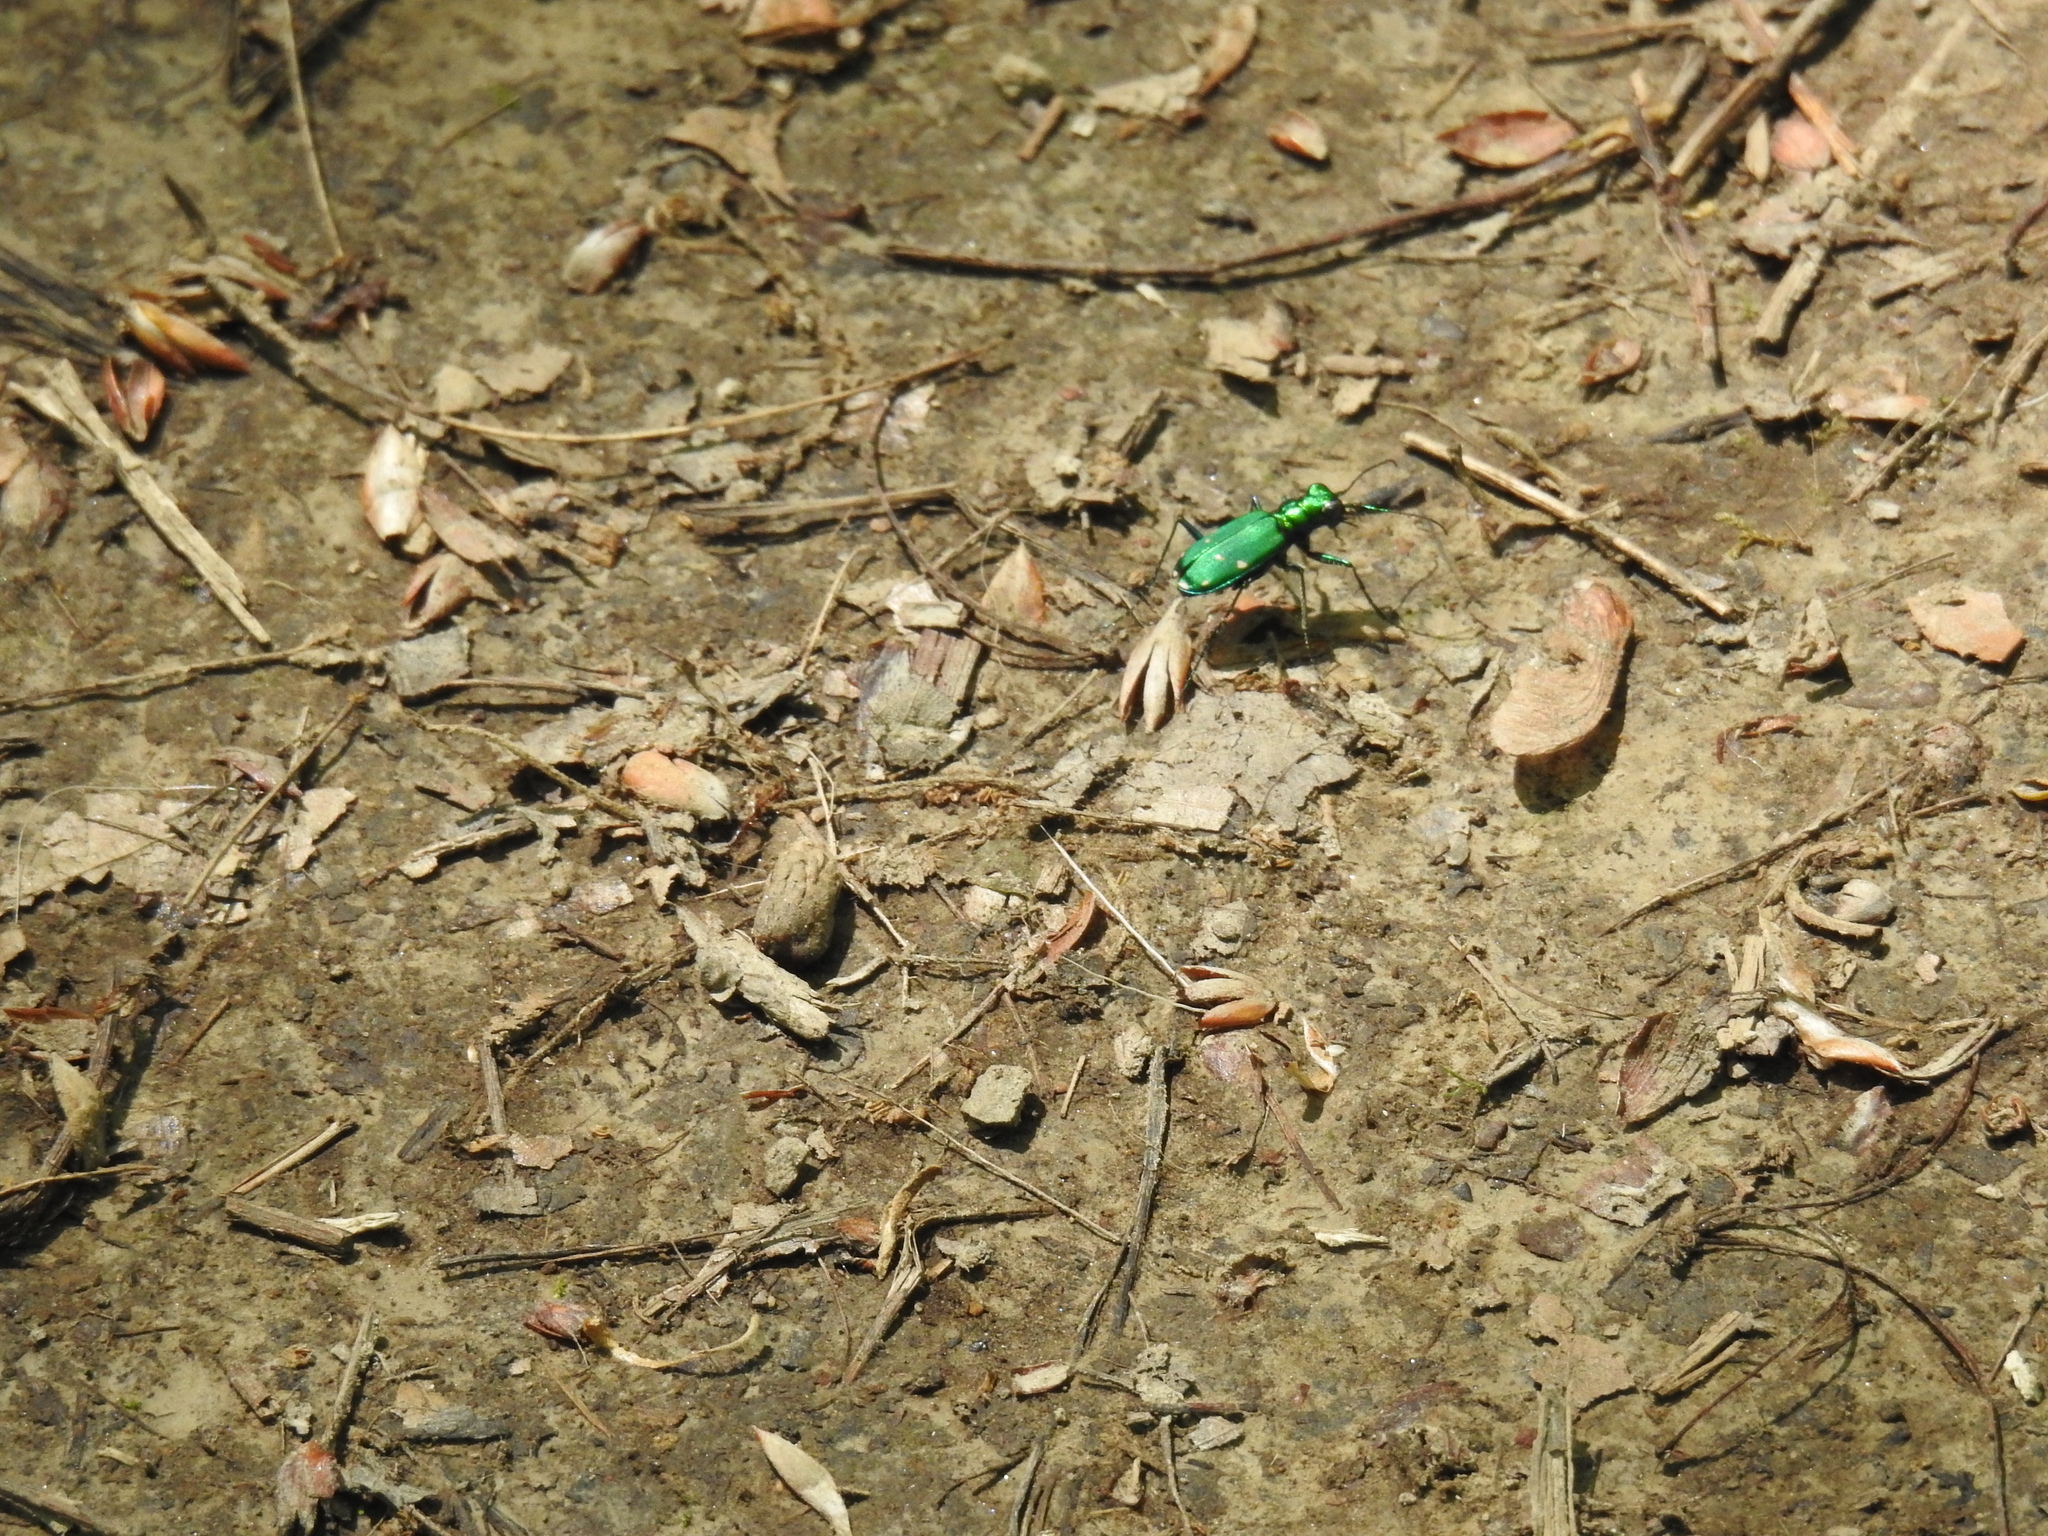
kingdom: Animalia
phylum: Arthropoda
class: Insecta
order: Coleoptera
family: Carabidae
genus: Cicindela
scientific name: Cicindela sexguttata
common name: Six-spotted tiger beetle
